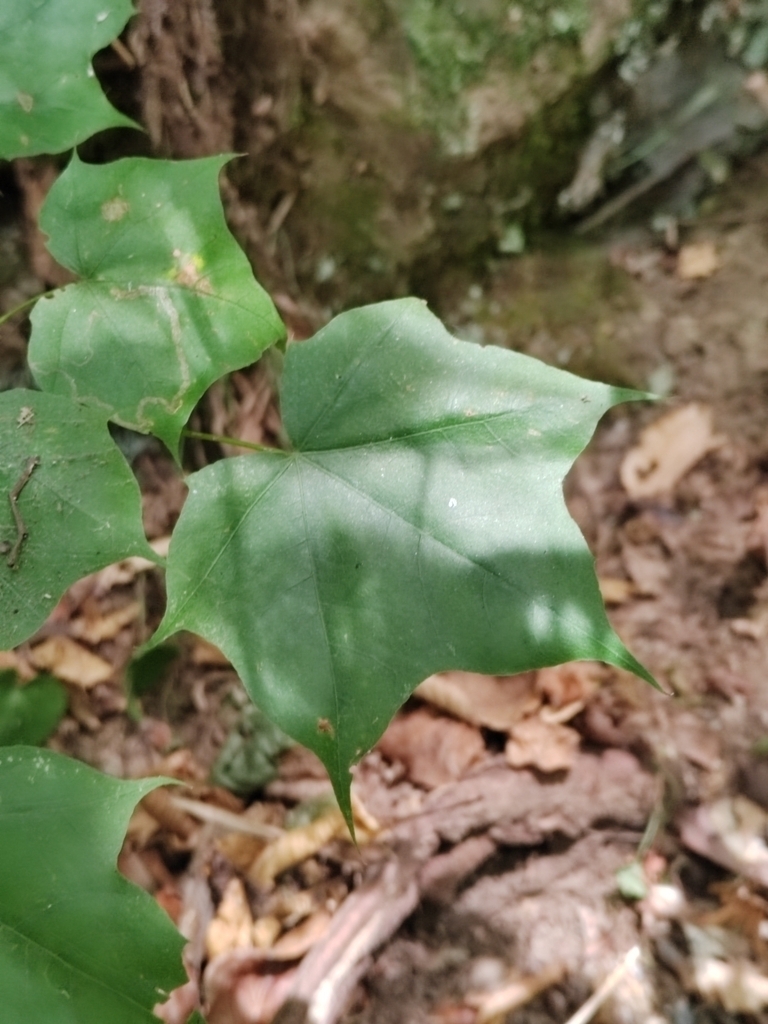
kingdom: Plantae
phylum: Tracheophyta
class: Magnoliopsida
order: Sapindales
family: Sapindaceae
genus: Acer
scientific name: Acer cappadocicum
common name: Cappadocian maple
